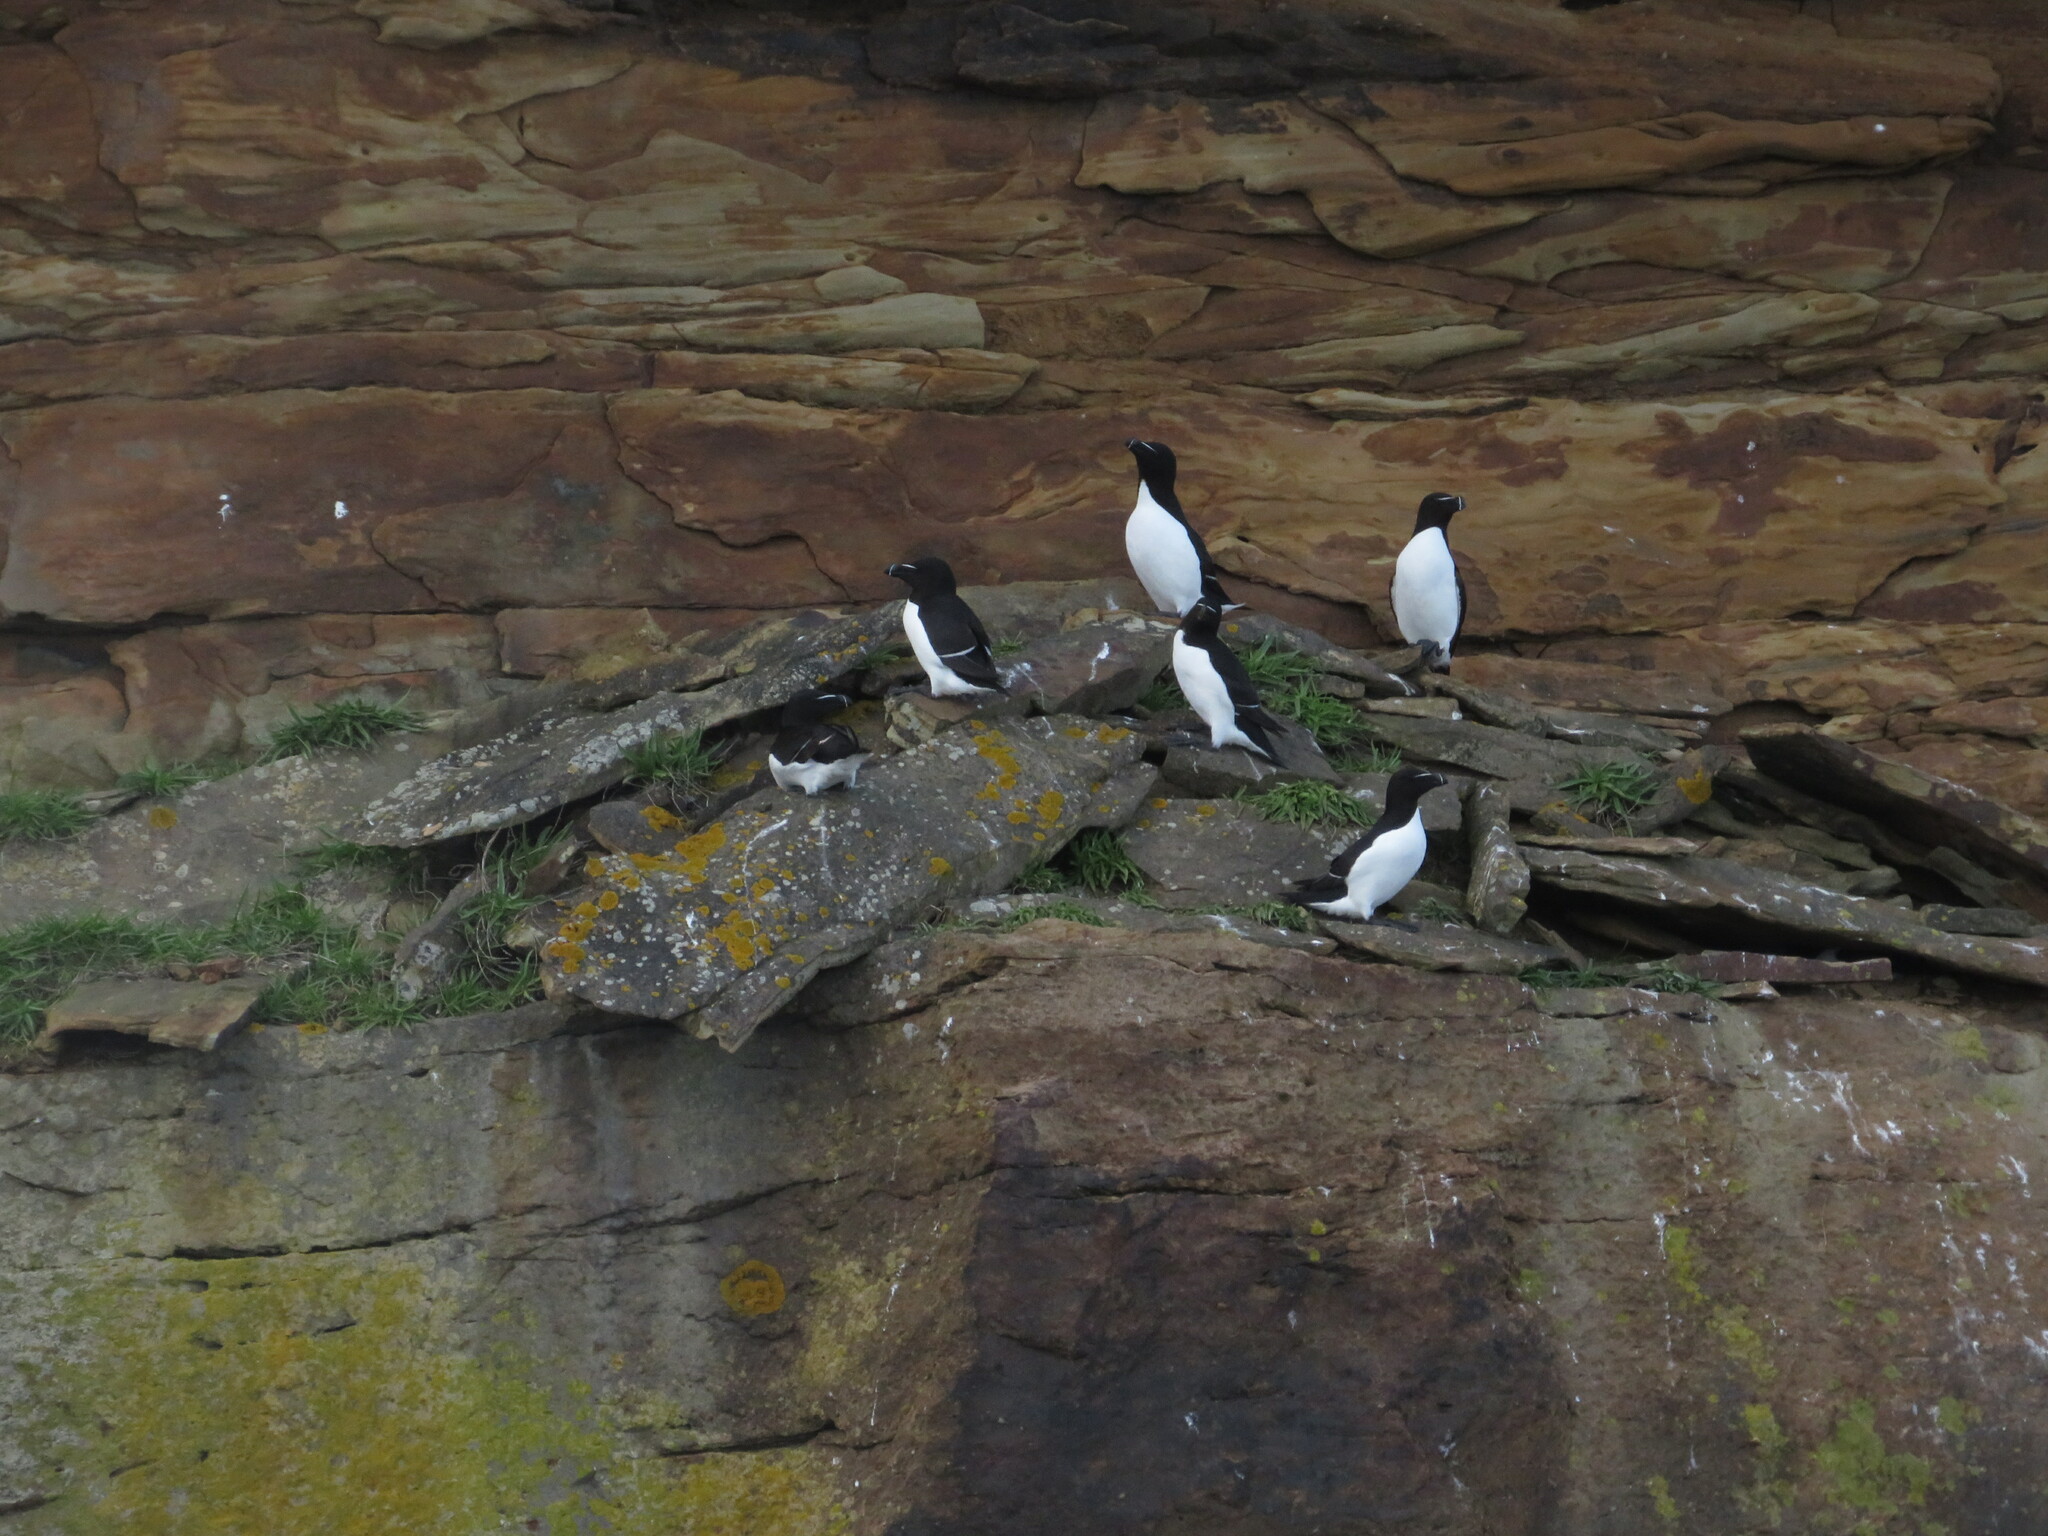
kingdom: Animalia
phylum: Chordata
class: Aves
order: Charadriiformes
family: Alcidae
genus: Alca
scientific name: Alca torda
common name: Razorbill
